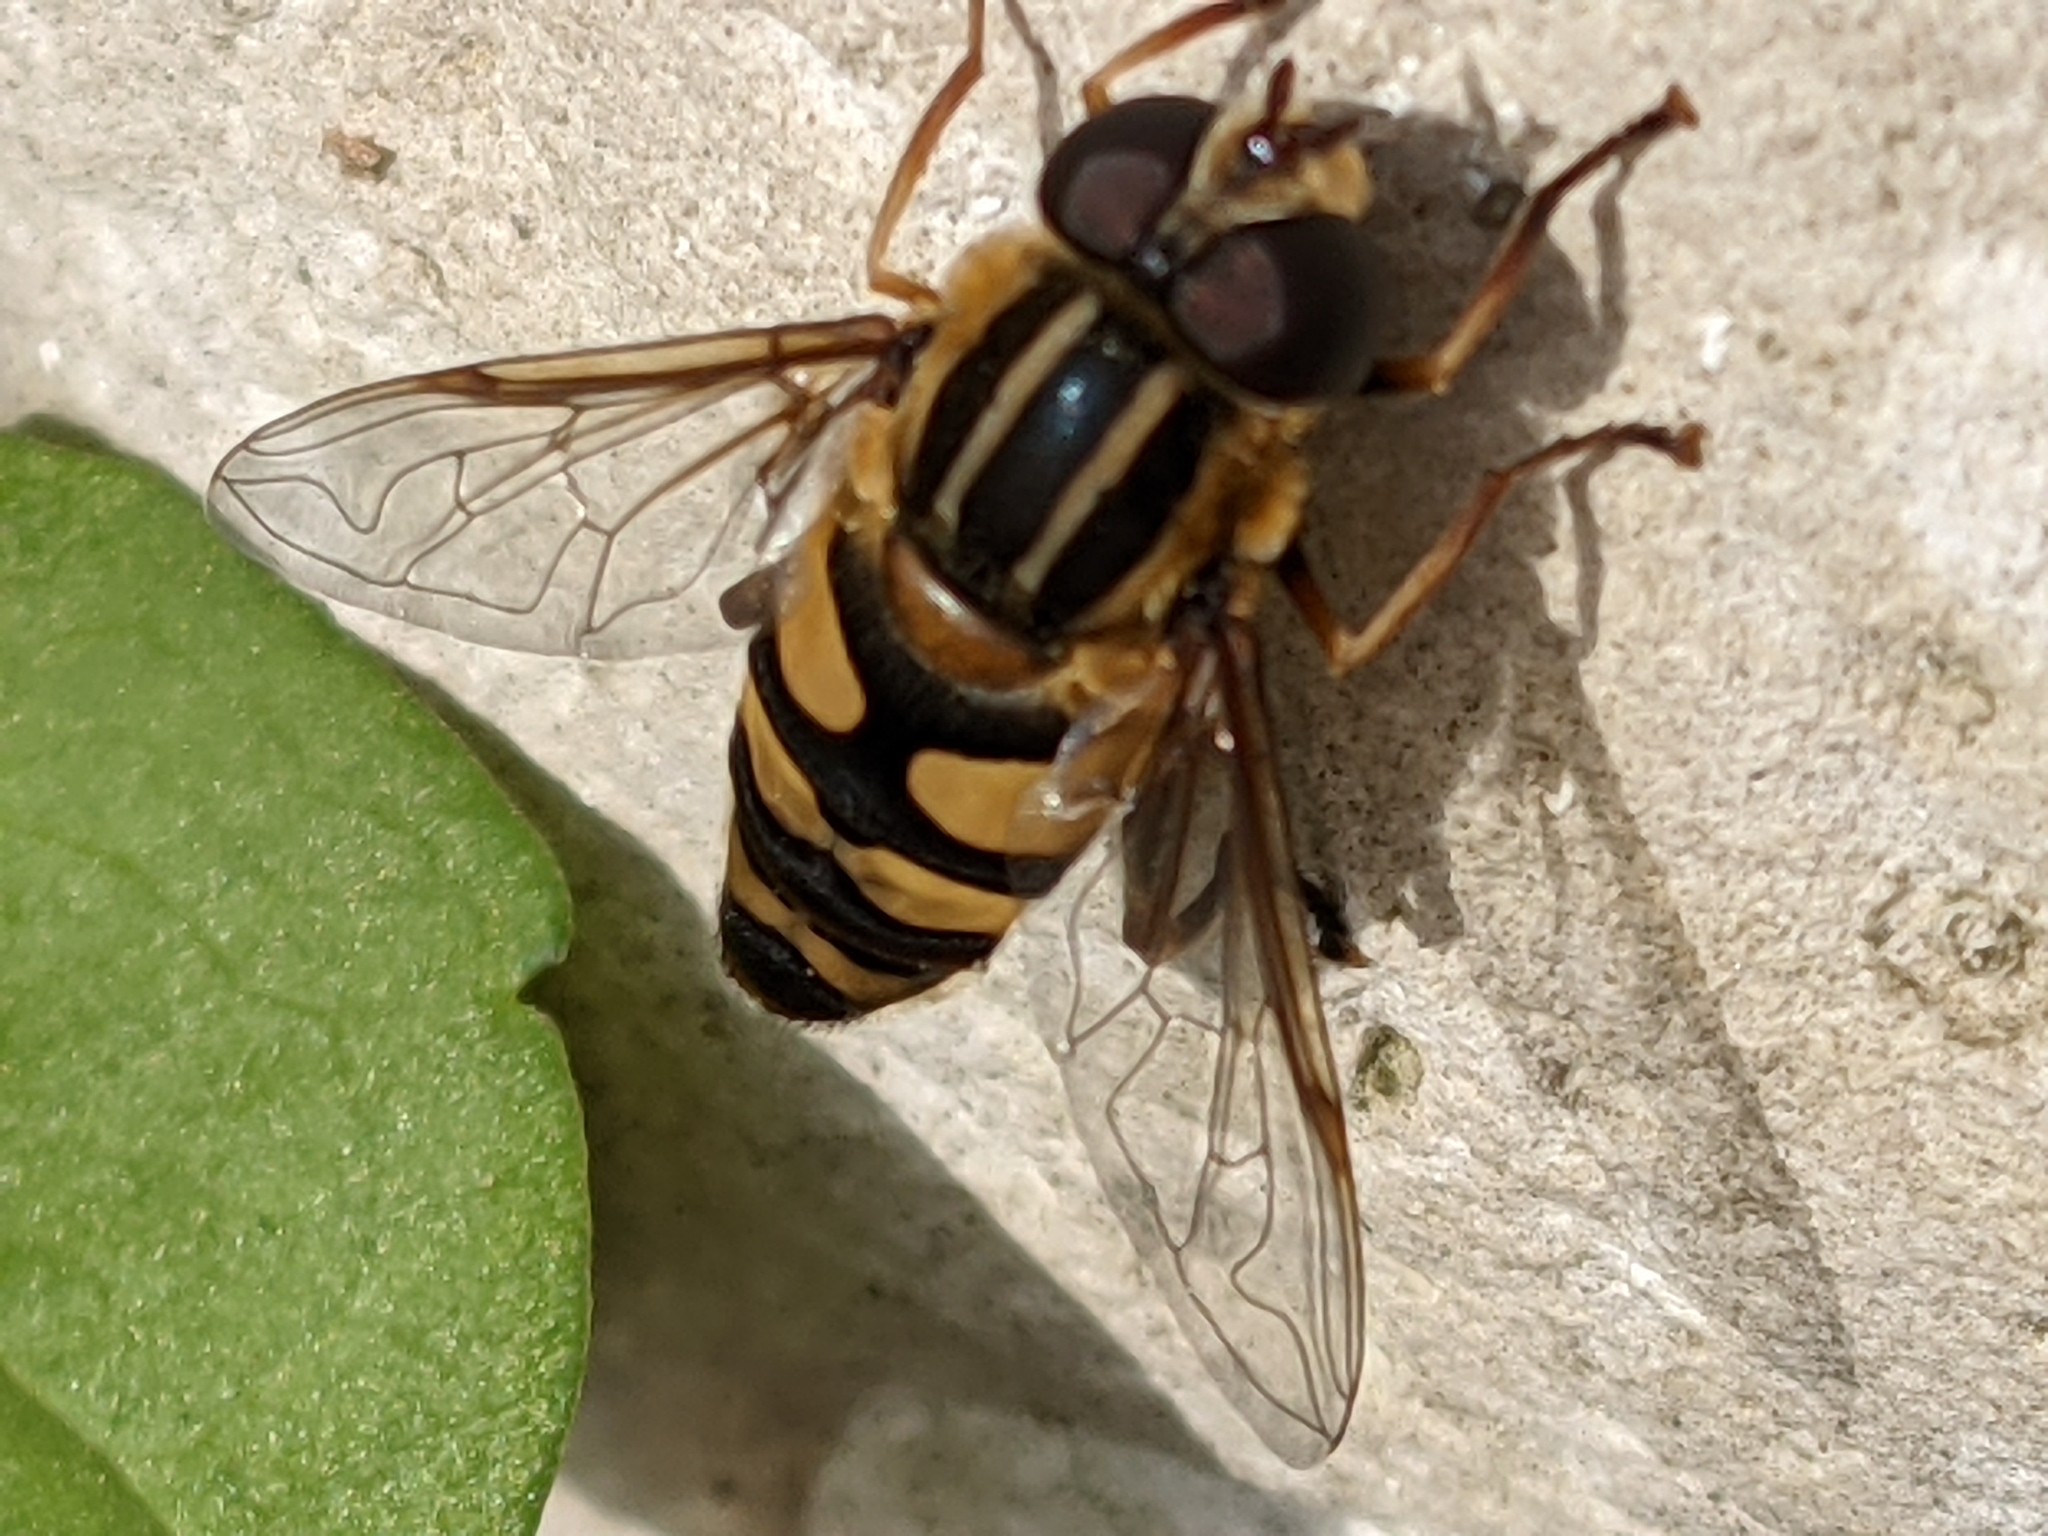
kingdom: Animalia
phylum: Arthropoda
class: Insecta
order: Diptera
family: Syrphidae
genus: Helophilus
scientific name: Helophilus fasciatus
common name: Narrow-headed marsh fly
